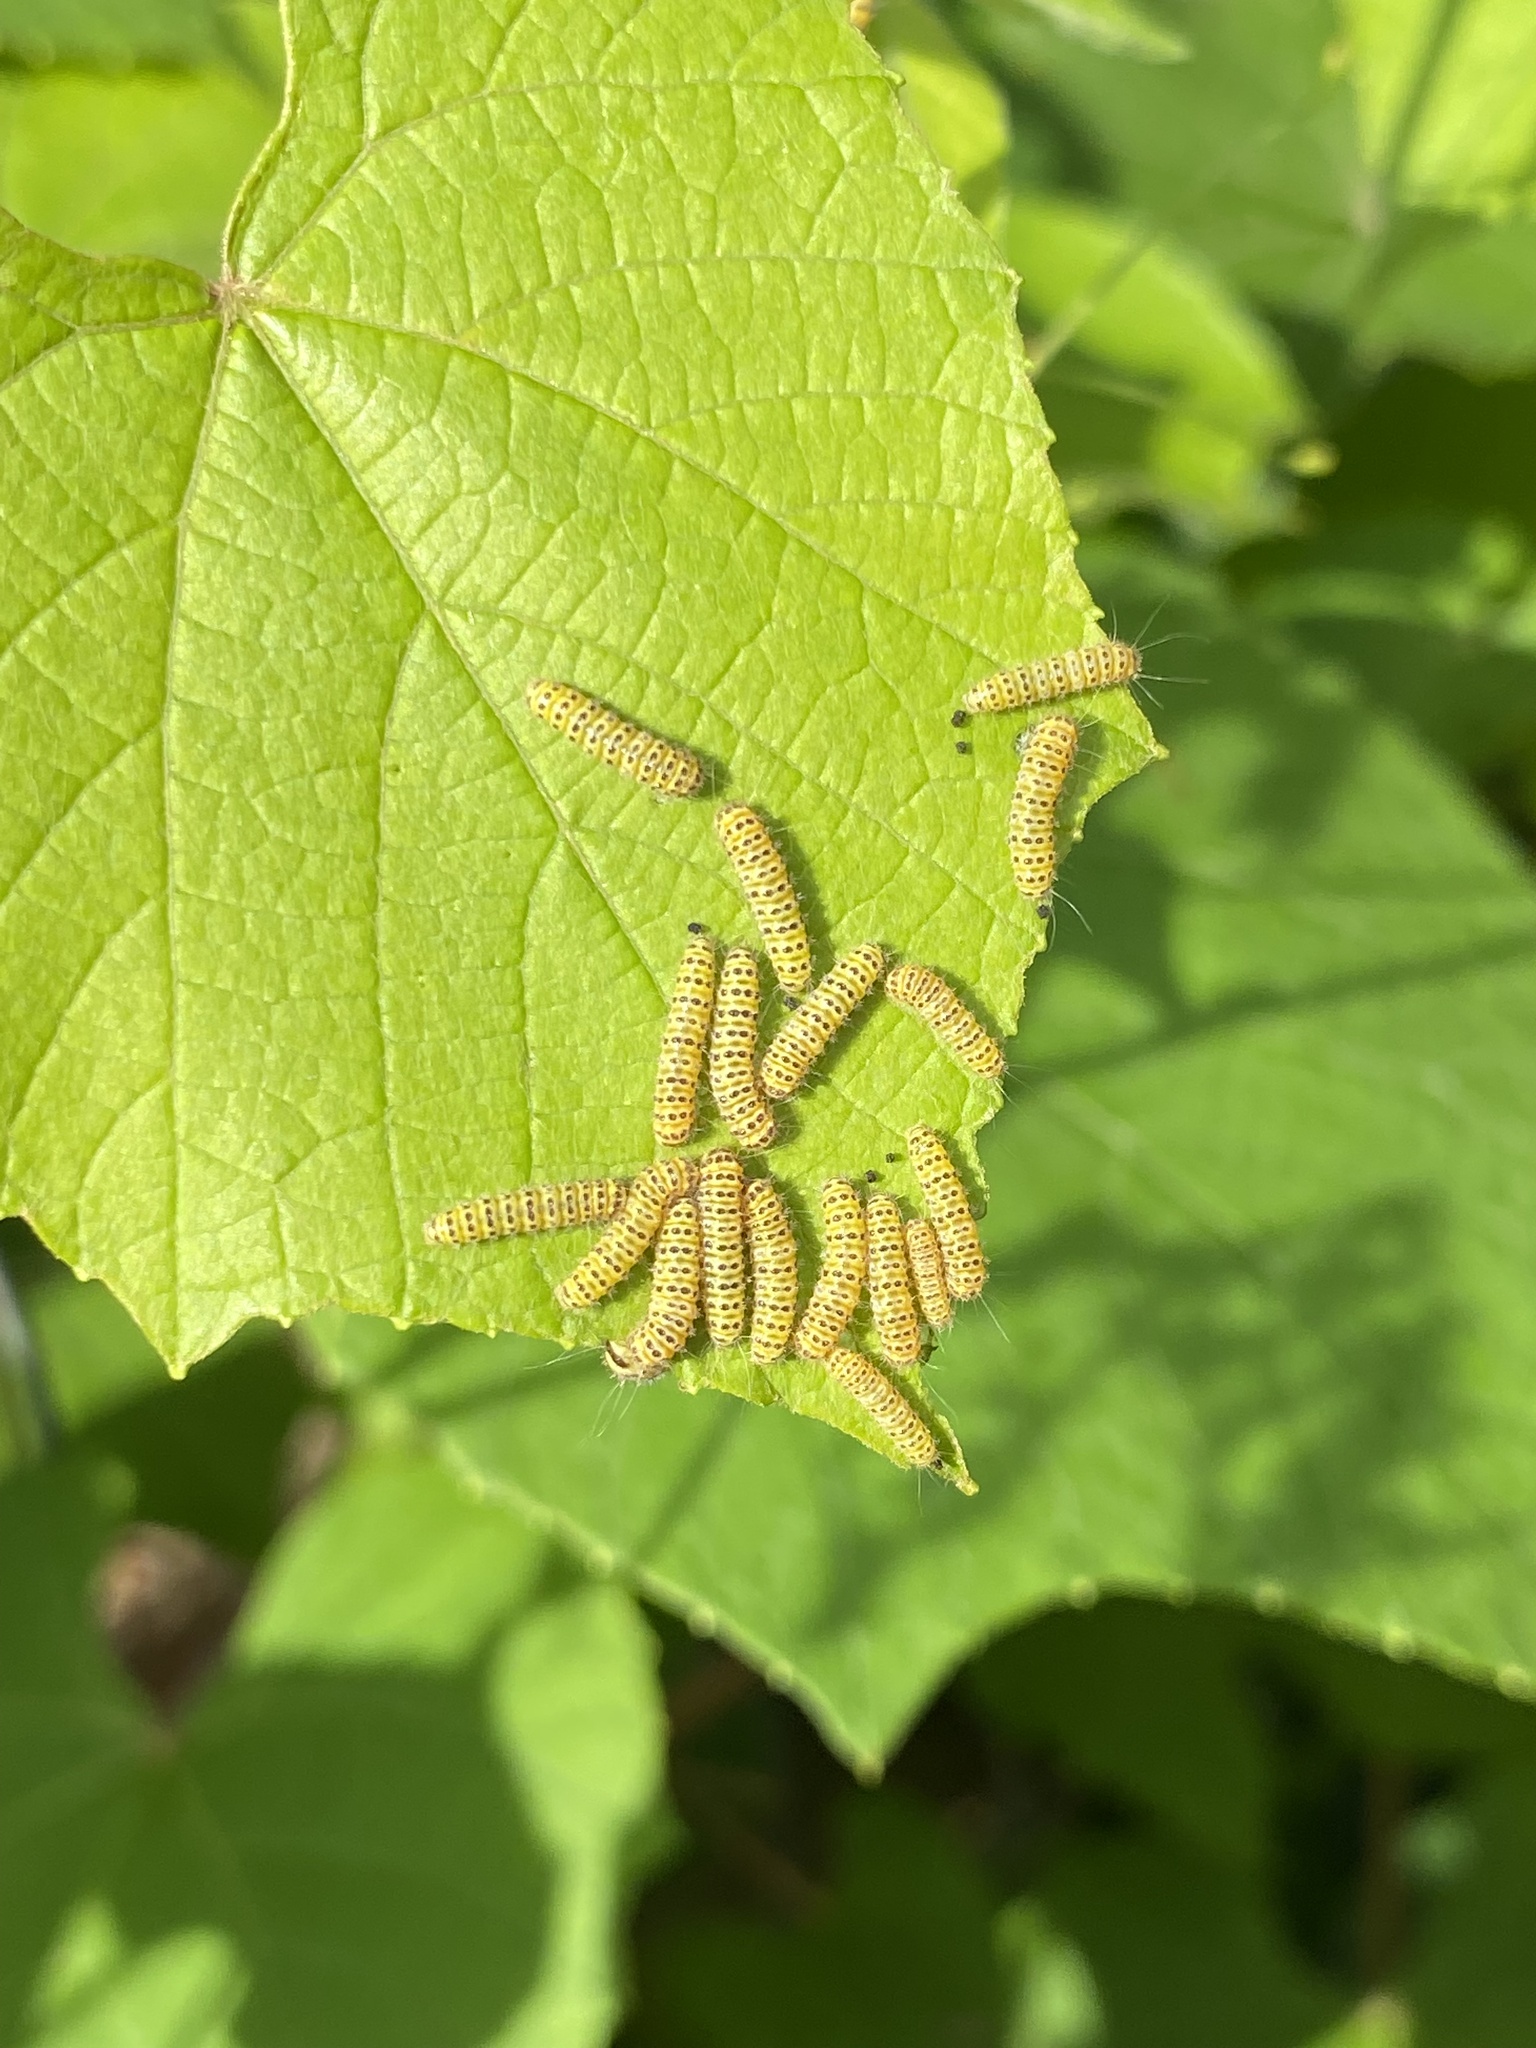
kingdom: Animalia
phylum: Arthropoda
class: Insecta
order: Lepidoptera
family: Zygaenidae
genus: Harrisina
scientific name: Harrisina americana
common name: Grapeleaf skeletonizer moth
